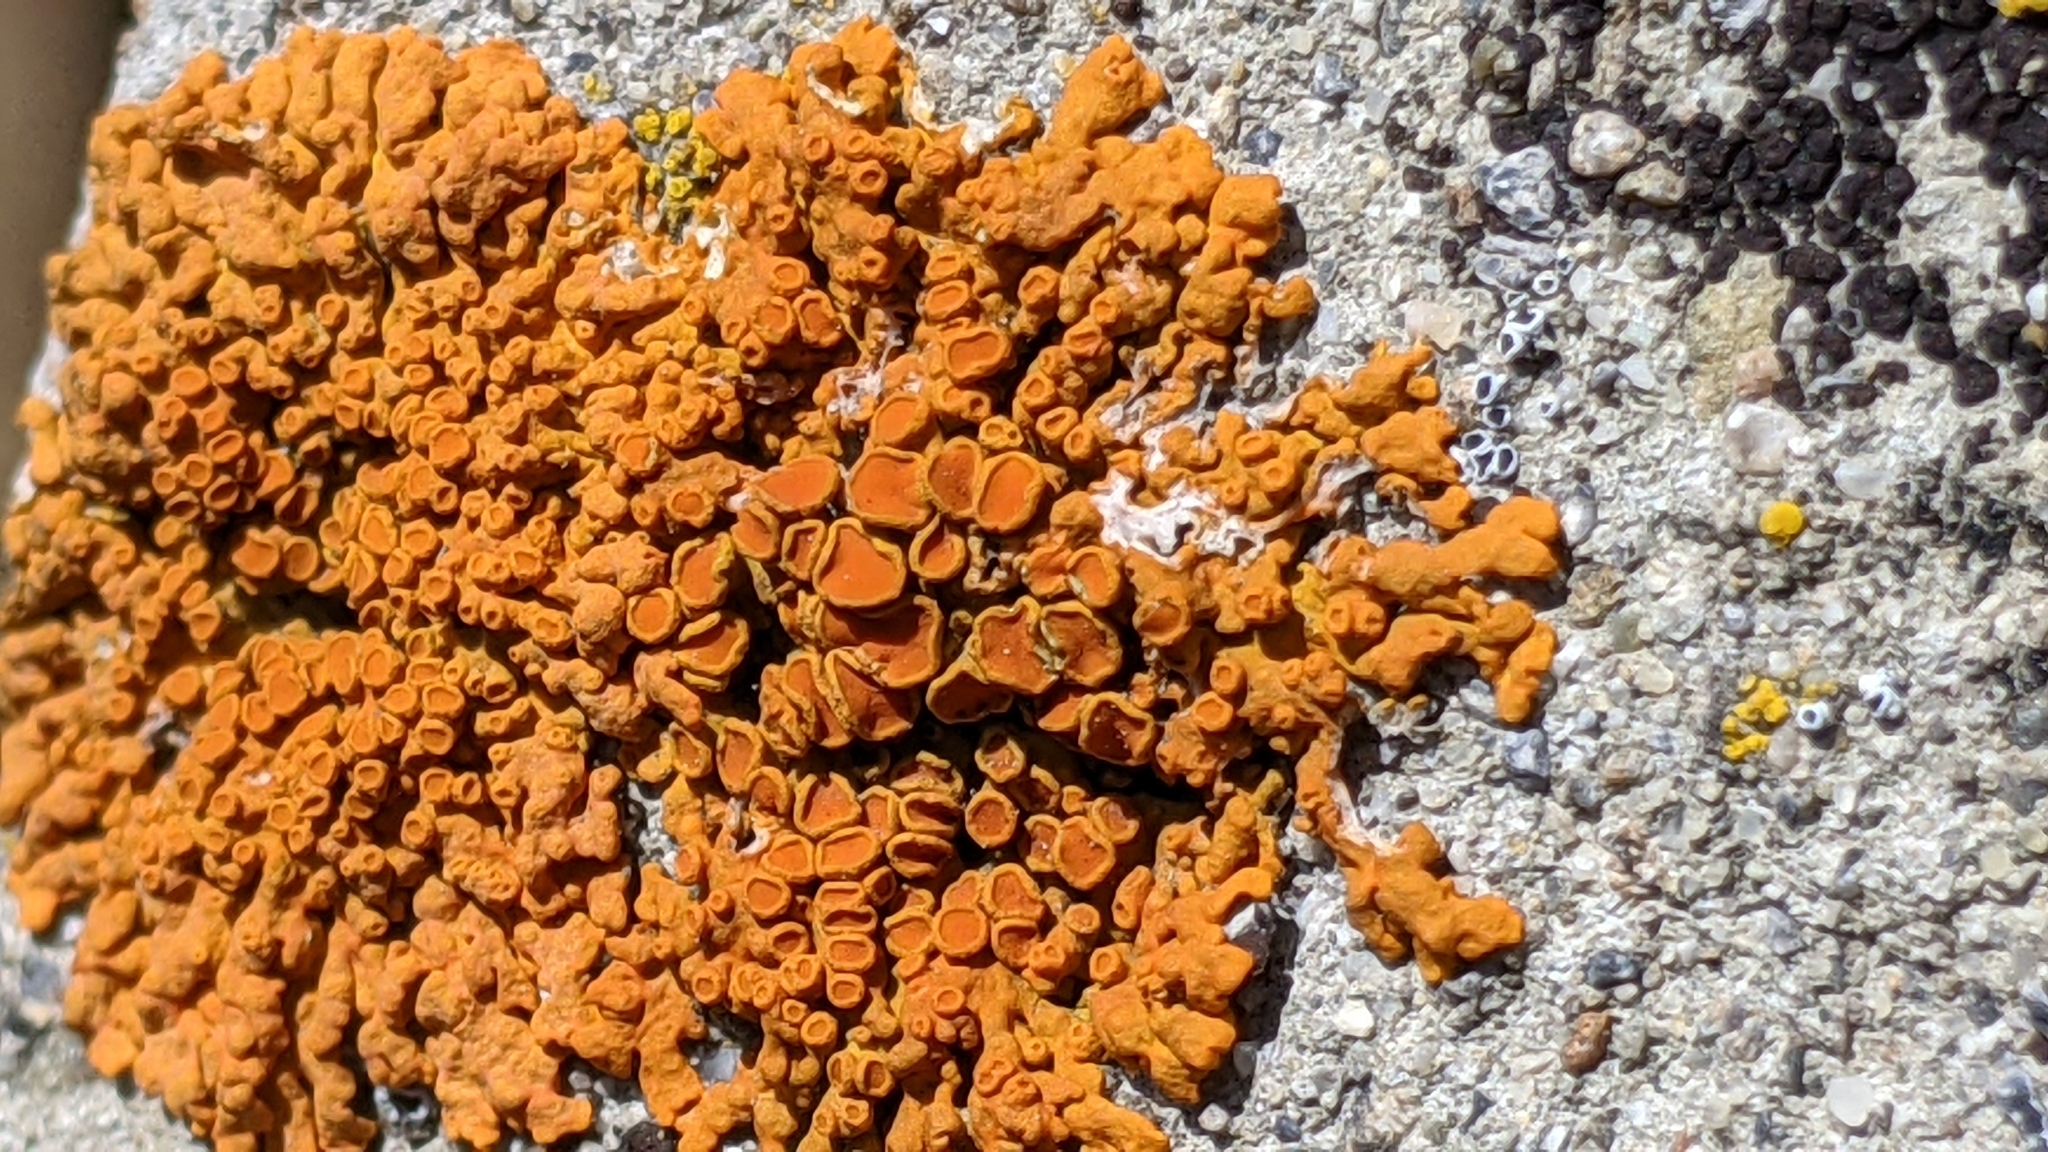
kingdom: Fungi
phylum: Ascomycota
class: Lecanoromycetes
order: Teloschistales
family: Teloschistaceae
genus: Xanthoria
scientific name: Xanthoria elegans
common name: Elegant sunburst lichen
